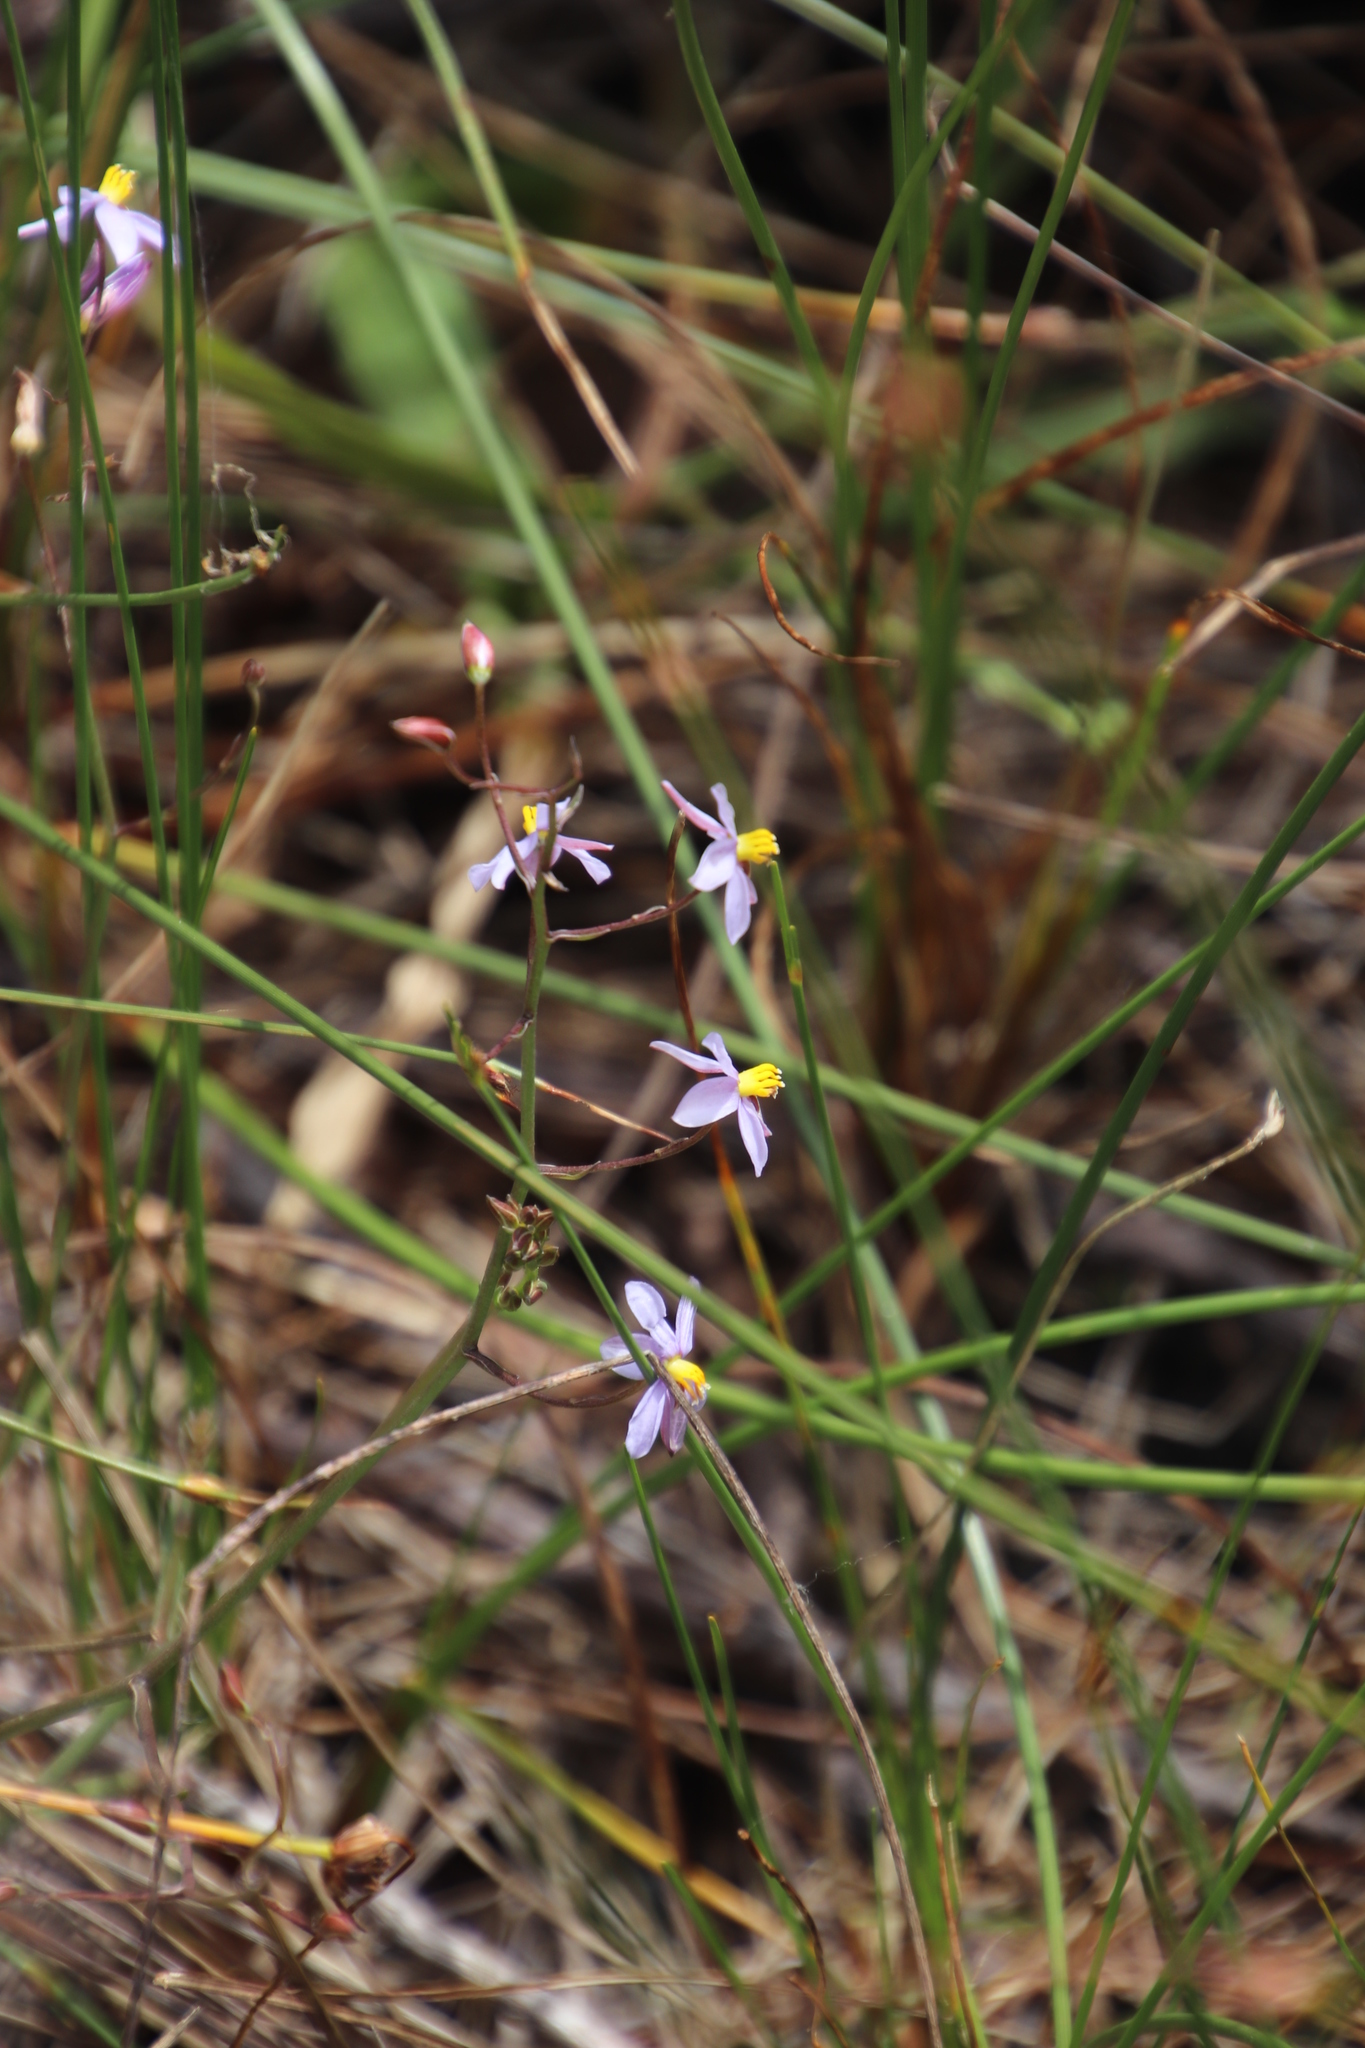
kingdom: Plantae
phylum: Tracheophyta
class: Liliopsida
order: Asparagales
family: Tecophilaeaceae
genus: Cyanella
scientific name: Cyanella hyacinthoides
